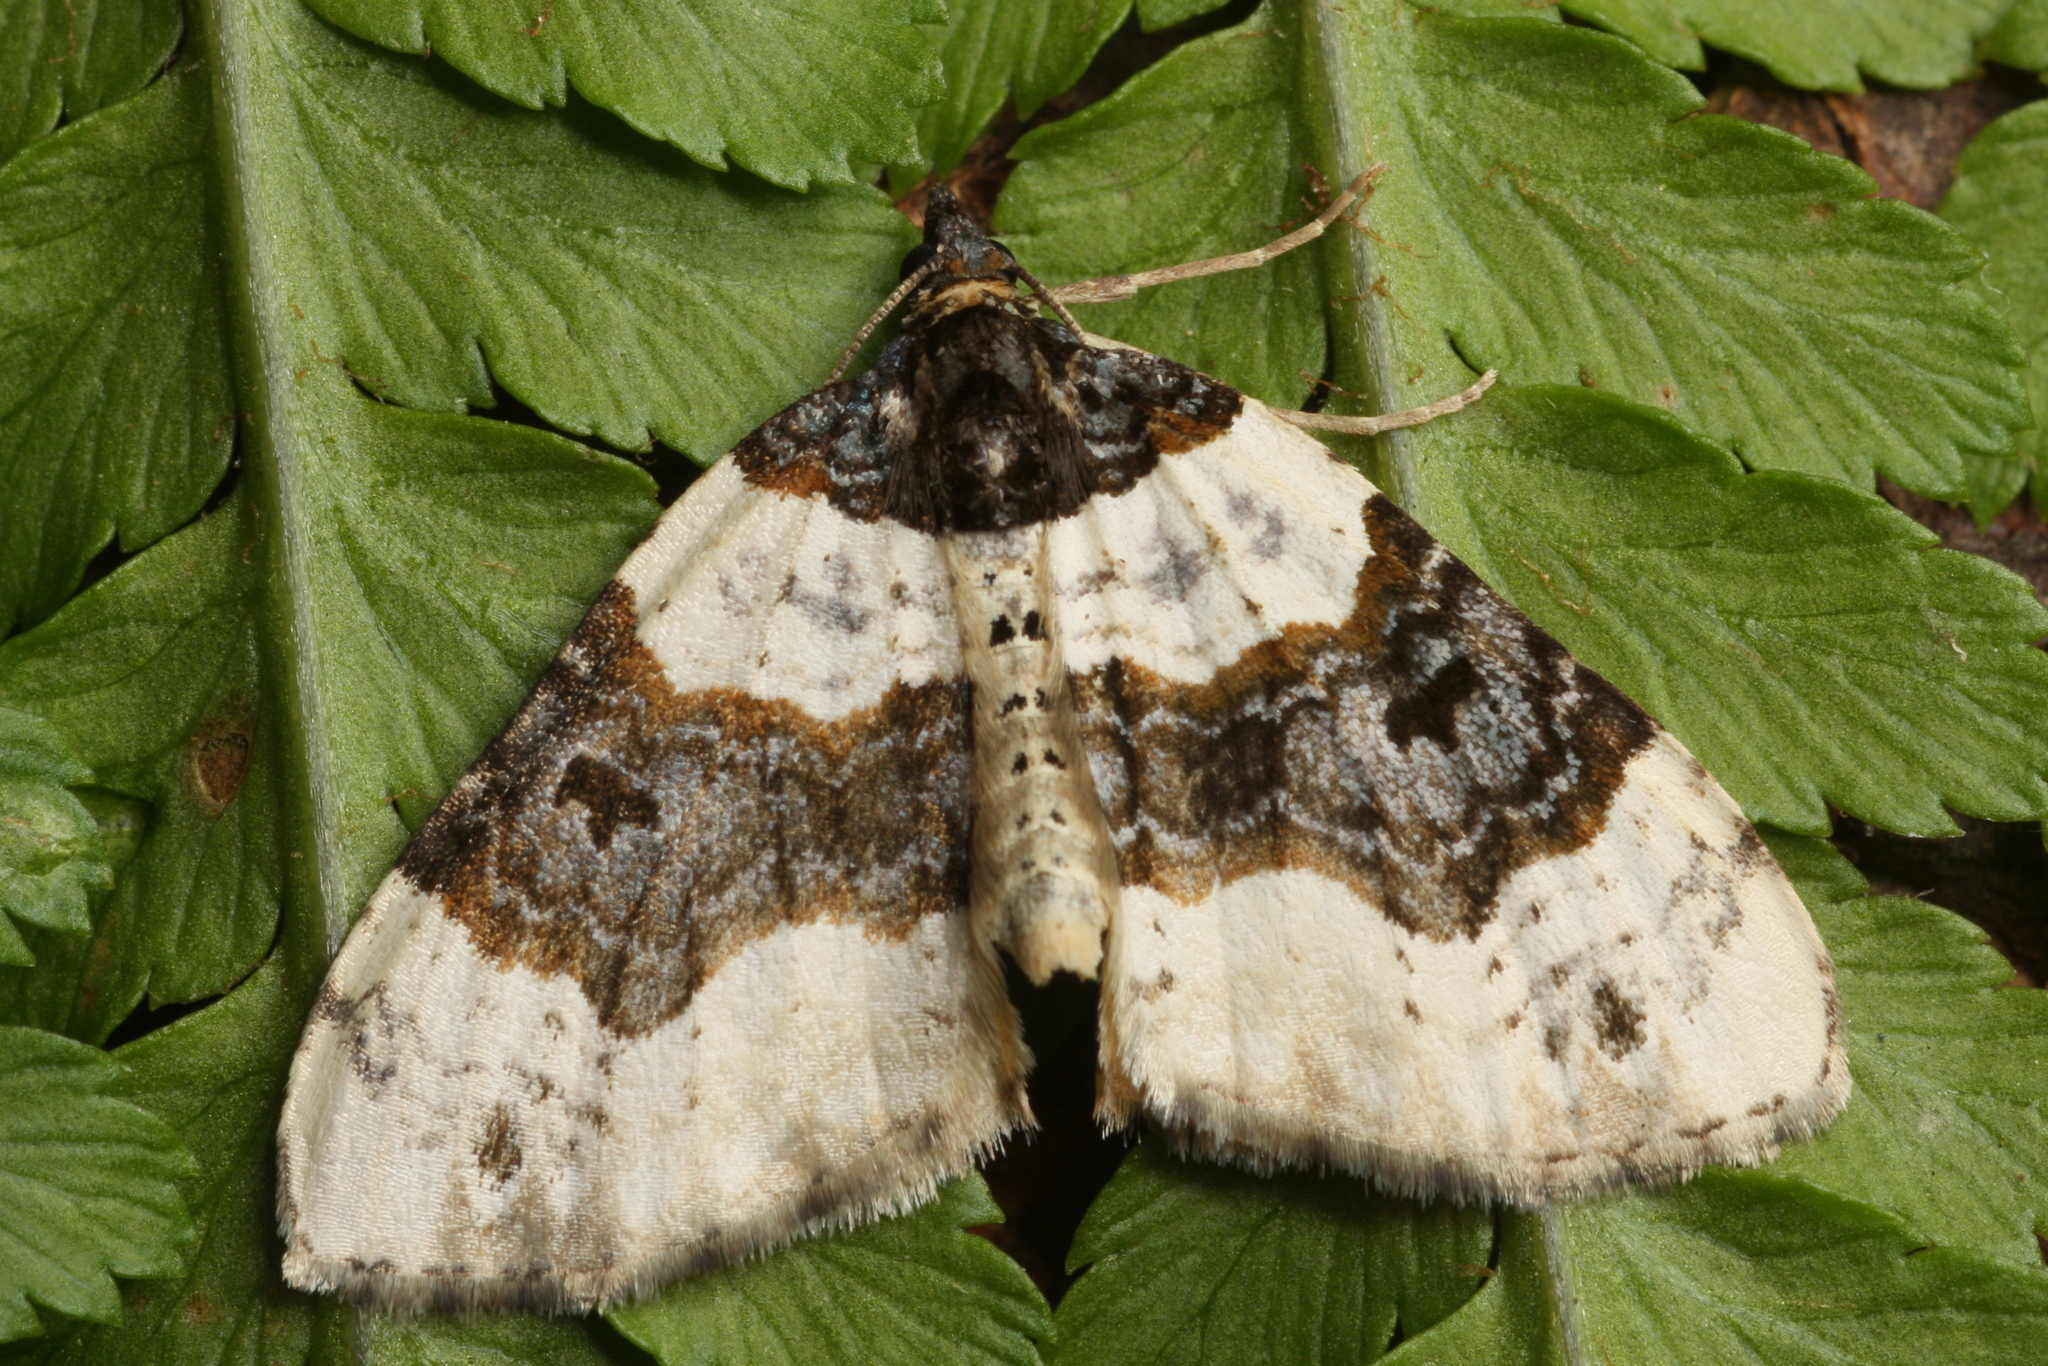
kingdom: Animalia
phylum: Arthropoda
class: Insecta
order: Lepidoptera
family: Geometridae
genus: Cosmorhoe
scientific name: Cosmorhoe ocellata
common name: Purple bar
